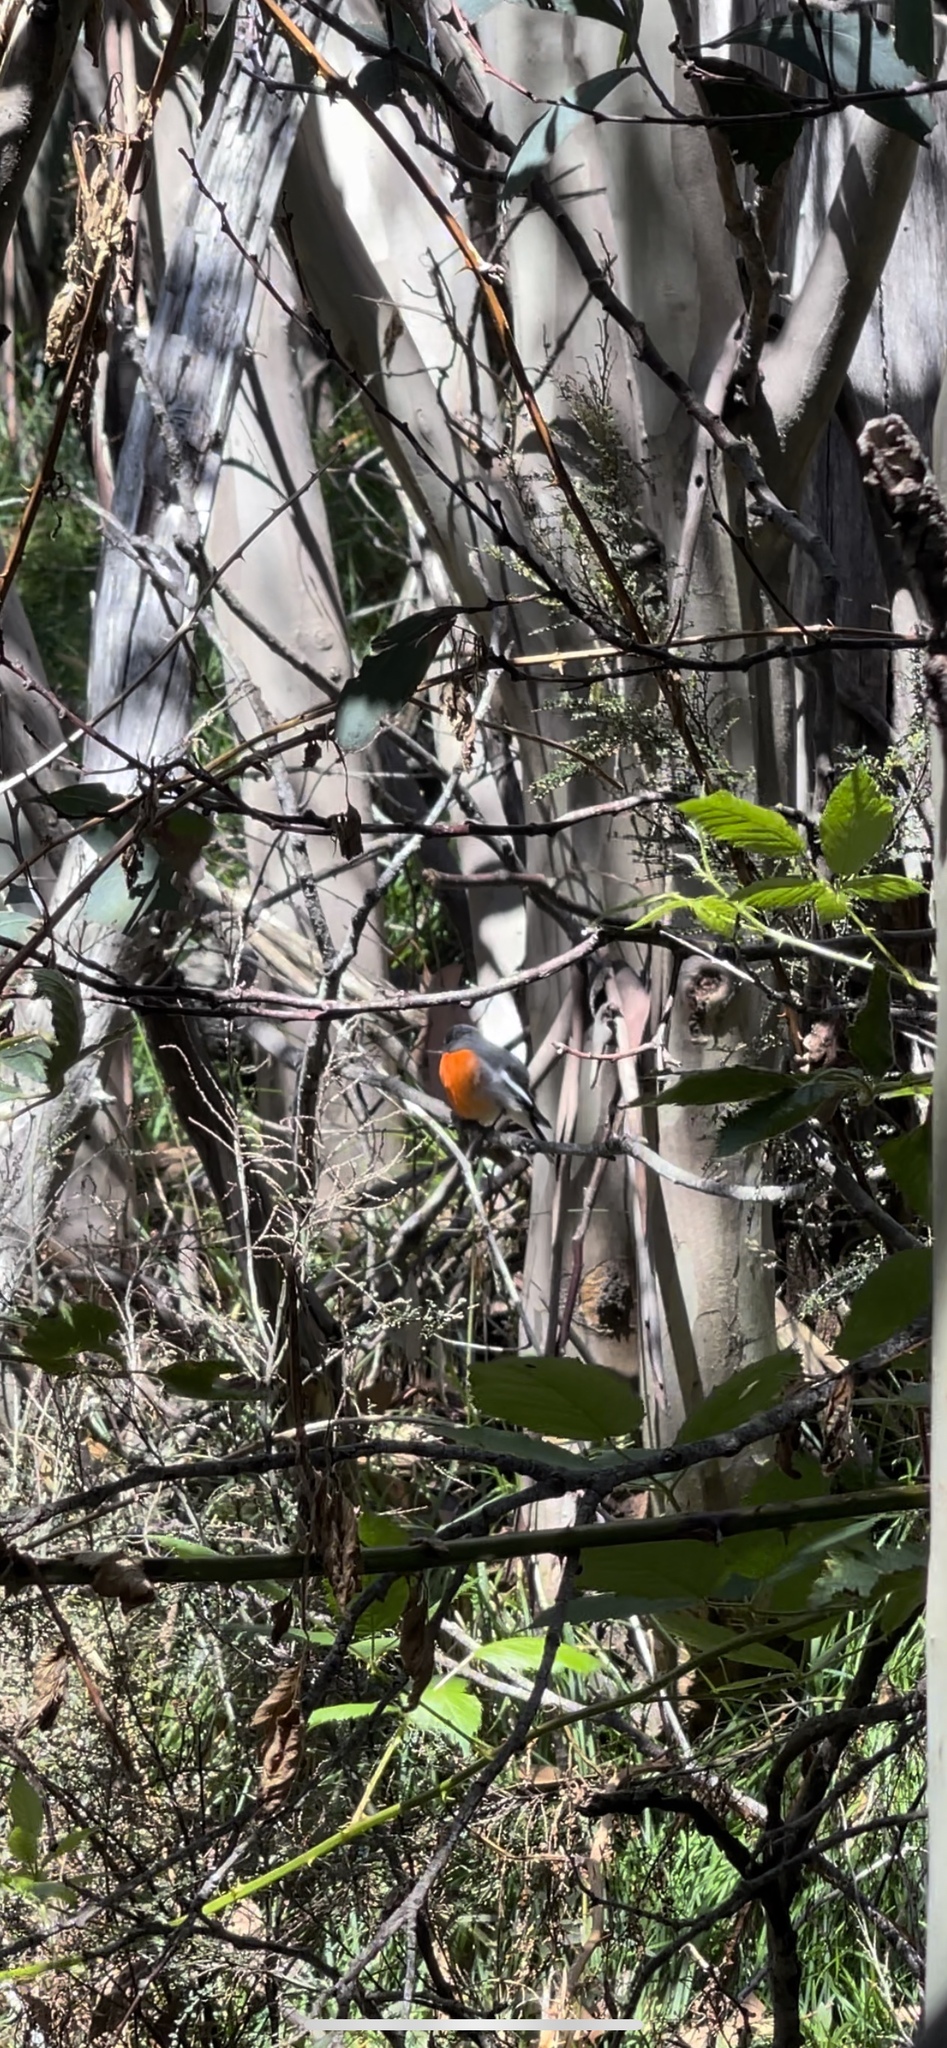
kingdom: Animalia
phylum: Chordata
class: Aves
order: Passeriformes
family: Petroicidae
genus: Petroica
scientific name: Petroica phoenicea
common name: Flame robin
